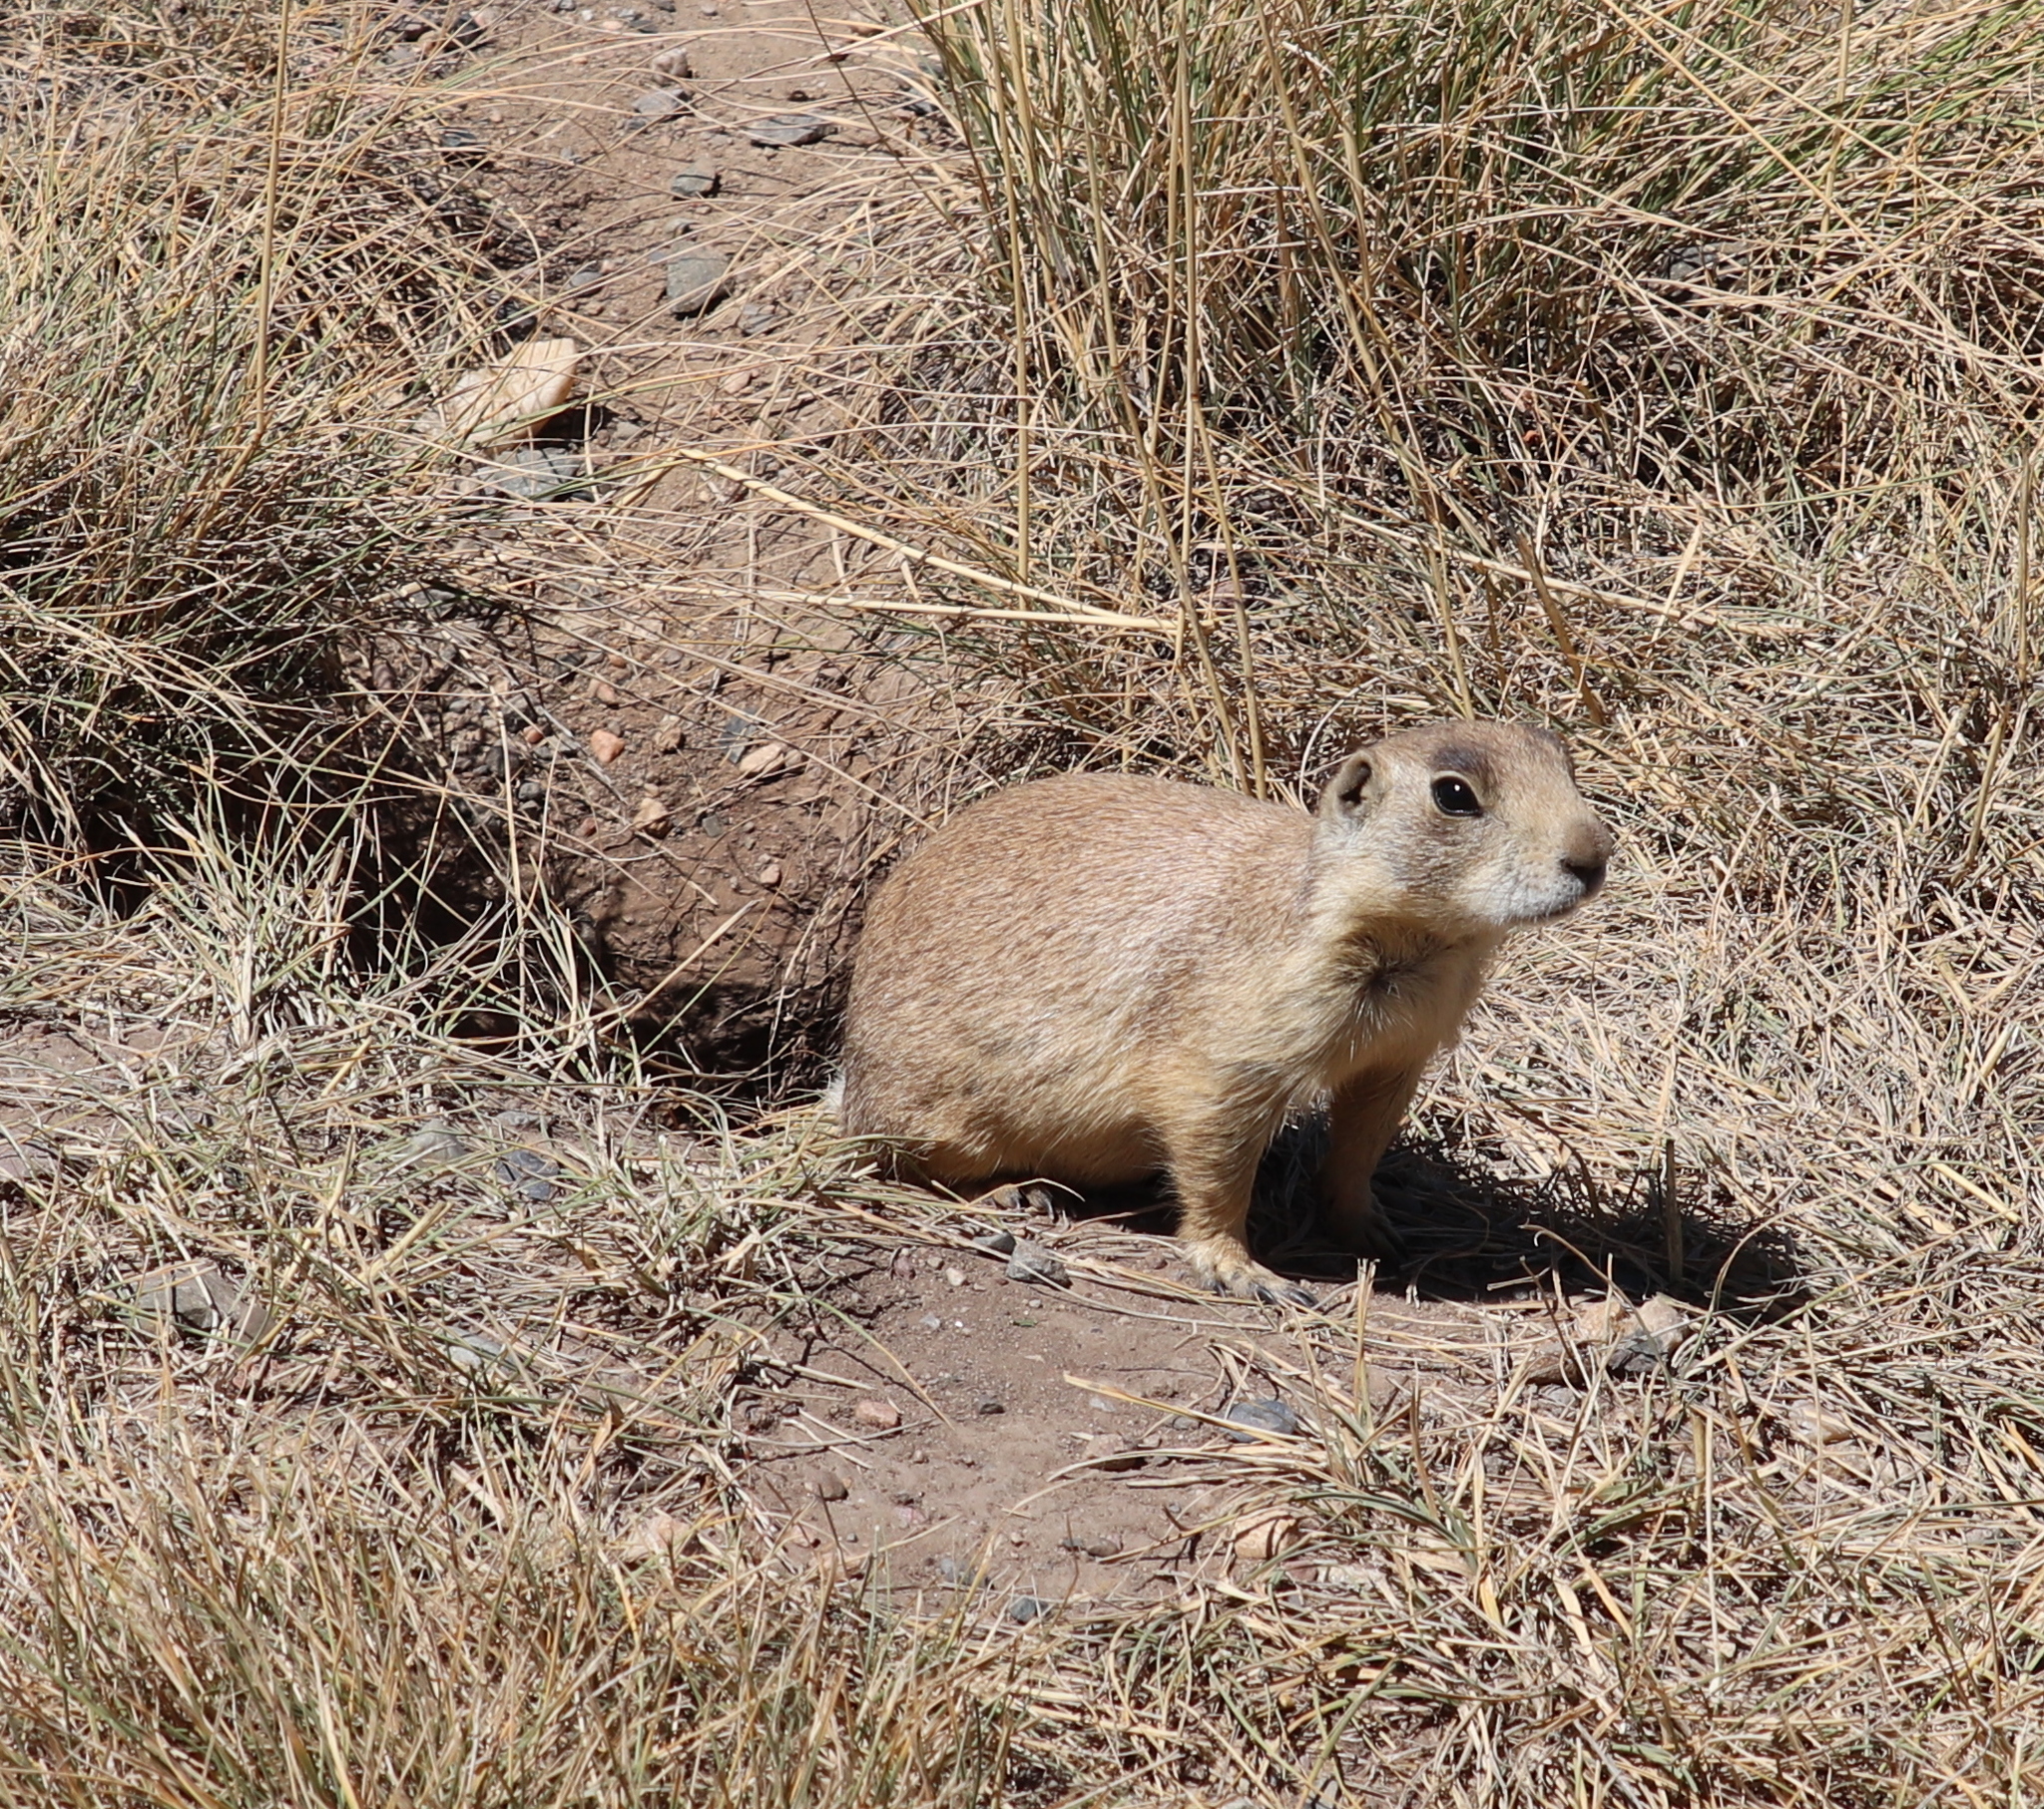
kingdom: Animalia
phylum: Chordata
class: Mammalia
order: Rodentia
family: Sciuridae
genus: Cynomys
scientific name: Cynomys leucurus
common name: White-tailed prairie dog
